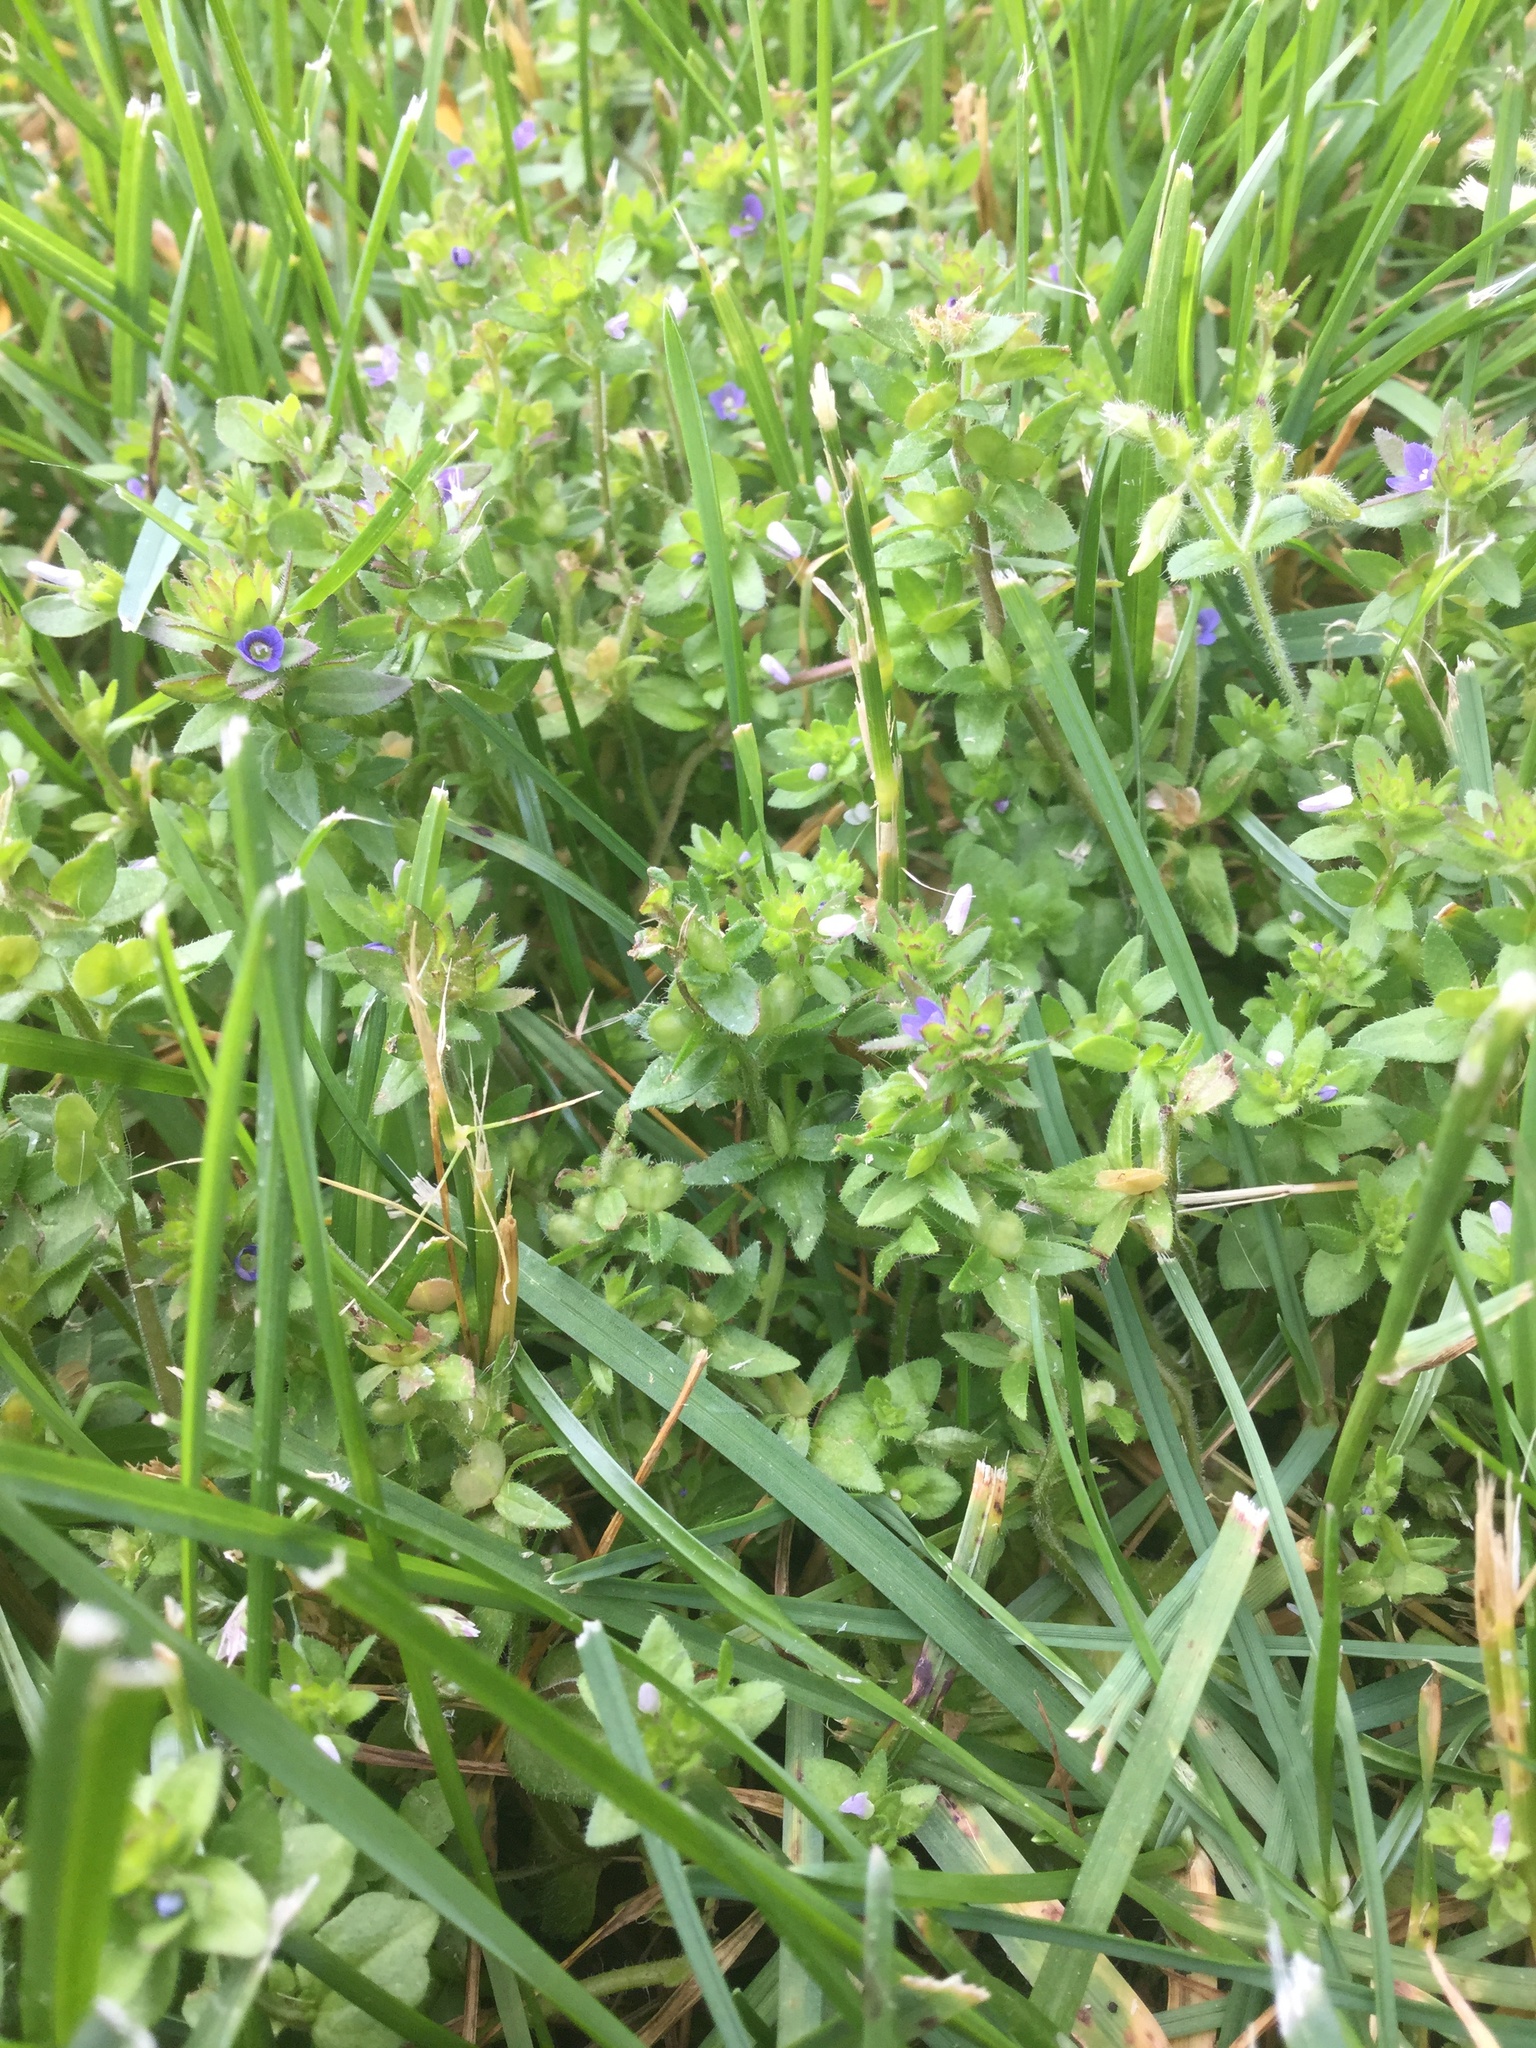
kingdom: Plantae
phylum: Tracheophyta
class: Magnoliopsida
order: Lamiales
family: Plantaginaceae
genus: Veronica
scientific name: Veronica arvensis
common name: Corn speedwell
